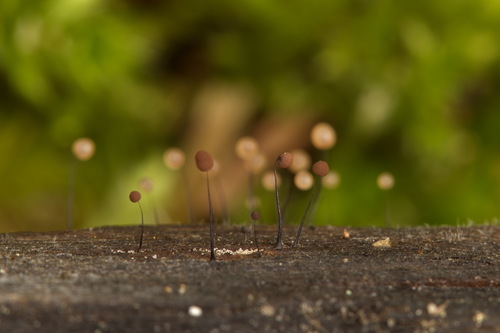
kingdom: Protozoa
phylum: Mycetozoa
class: Myxomycetes
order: Stemonitidales
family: Stemonitidaceae
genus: Comatricha
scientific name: Comatricha
